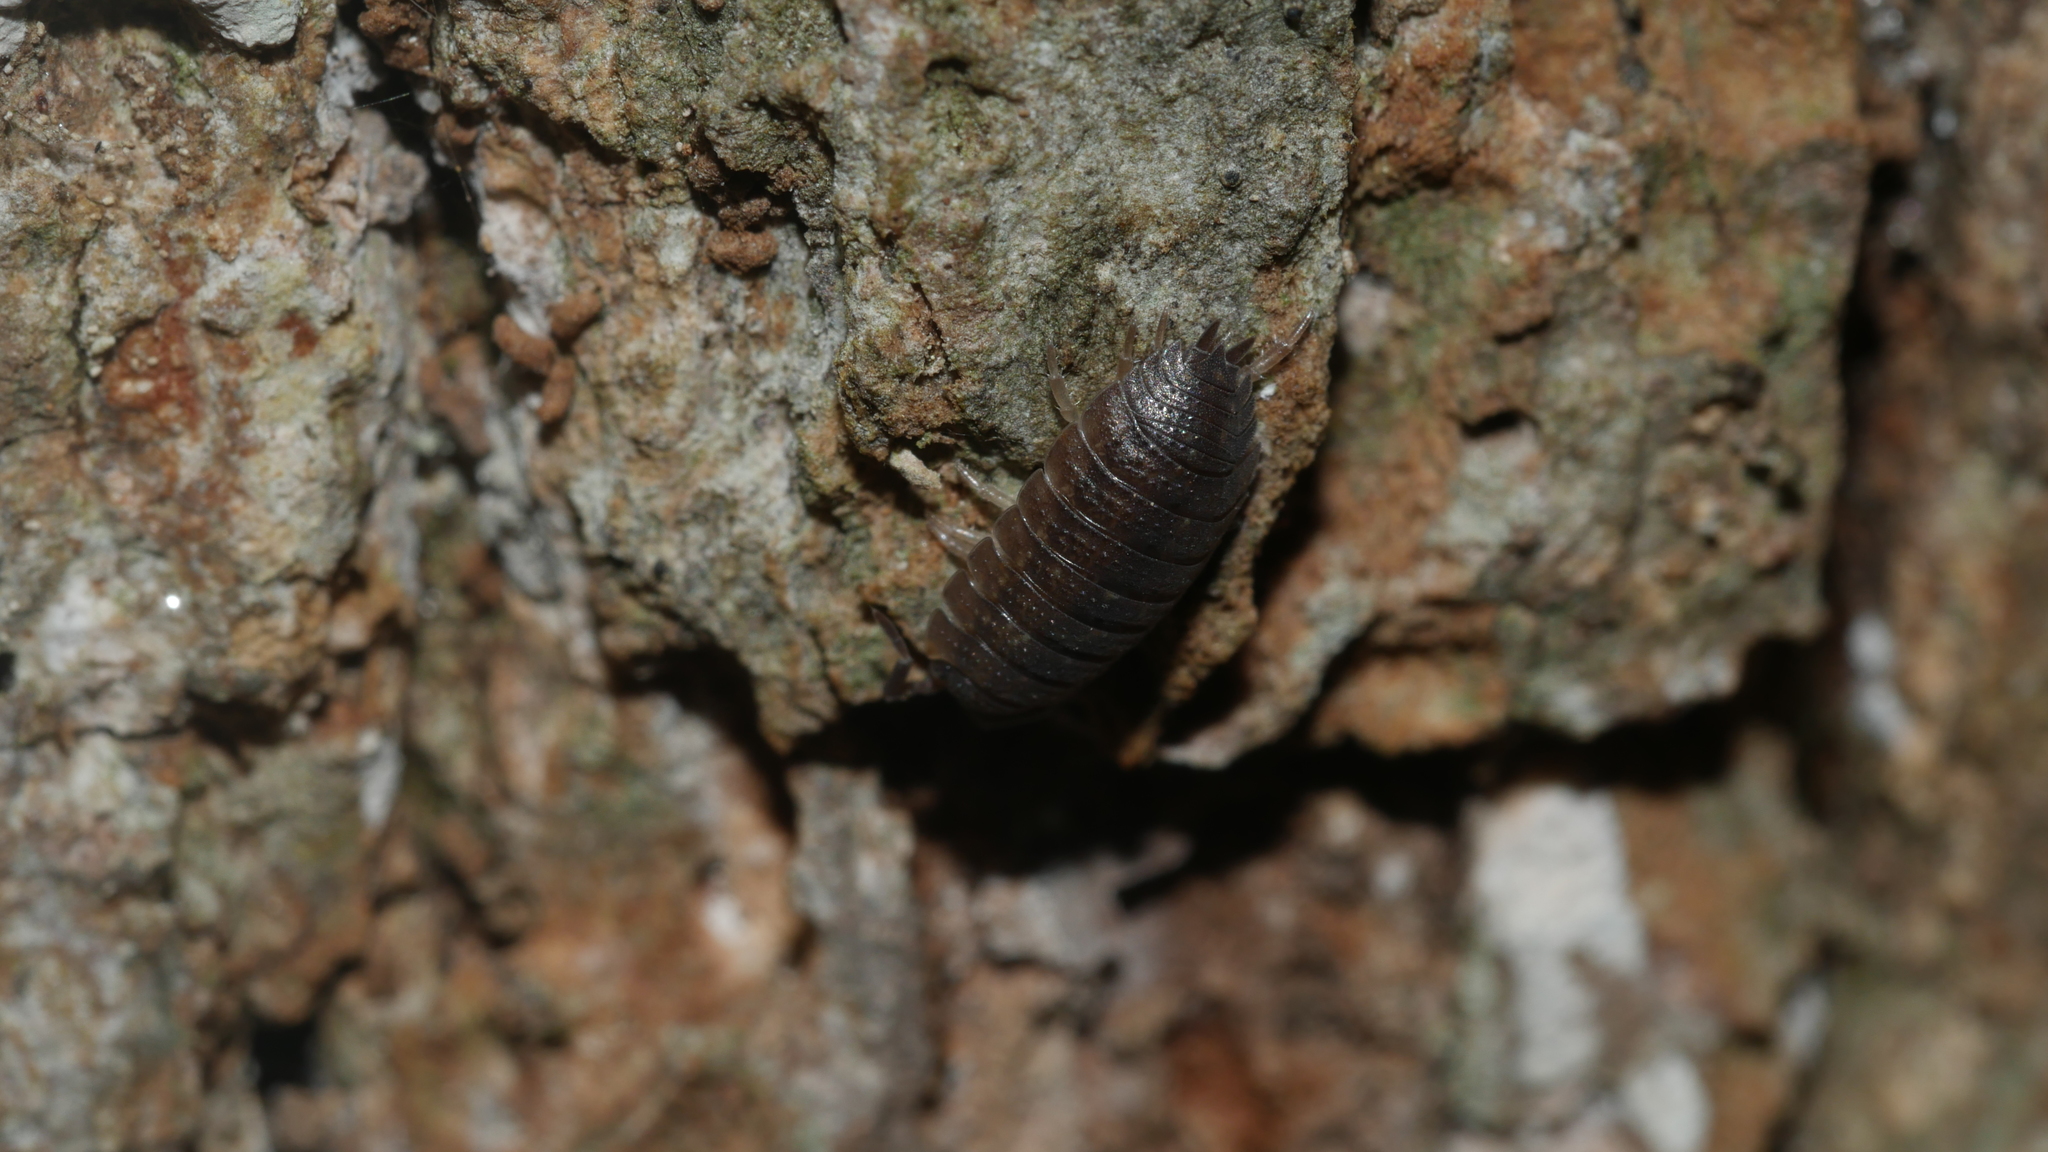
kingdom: Animalia
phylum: Arthropoda
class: Malacostraca
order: Isopoda
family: Porcellionidae
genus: Porcellio
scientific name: Porcellio scaber
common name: Common rough woodlouse
